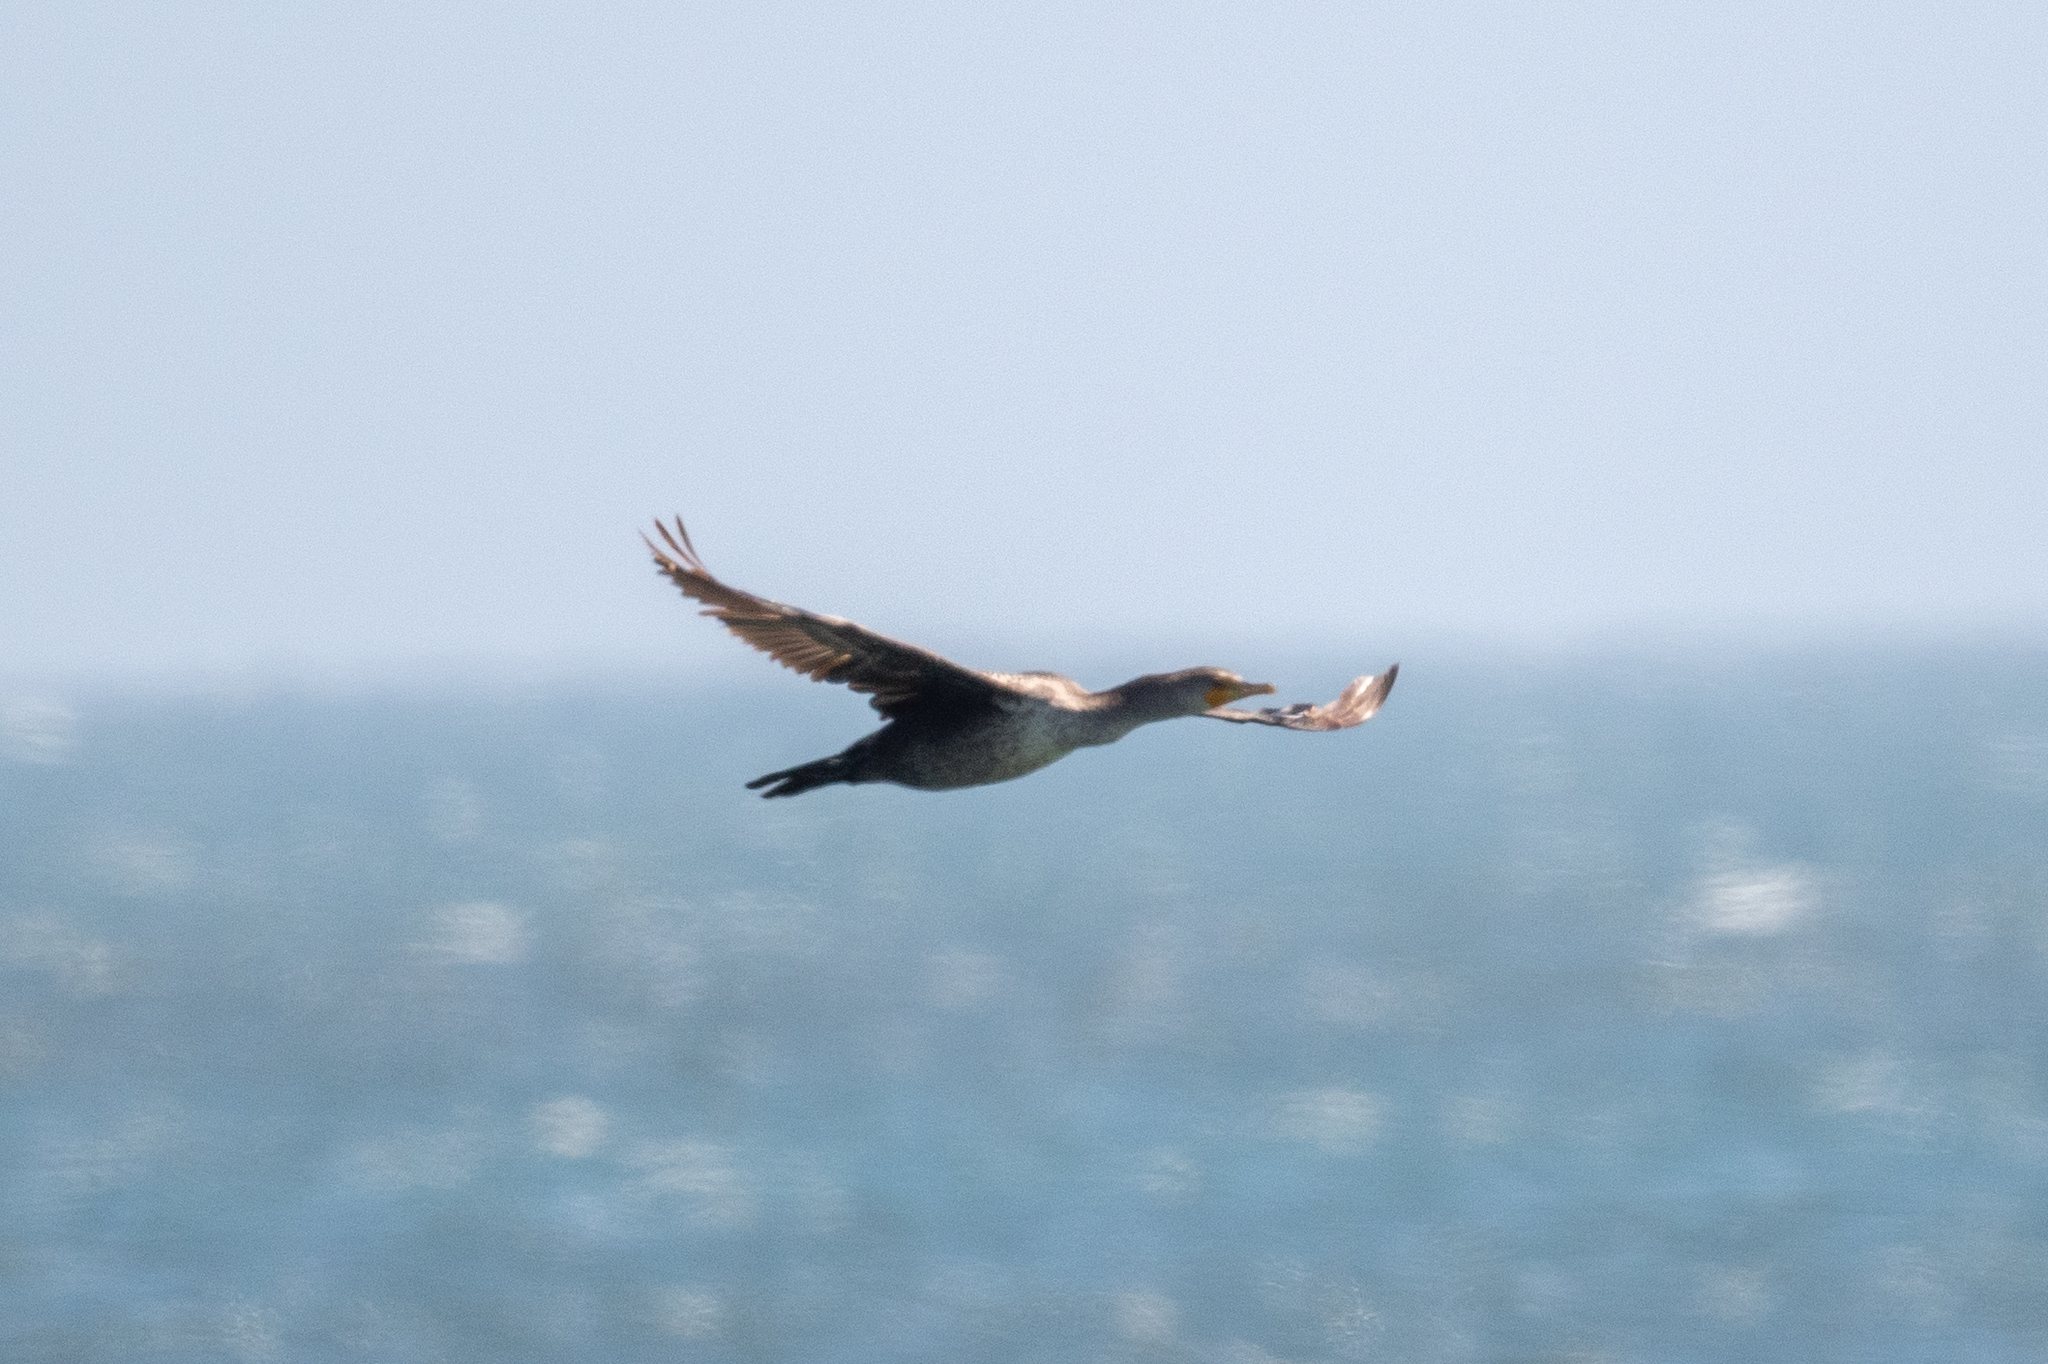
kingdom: Animalia
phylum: Chordata
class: Aves
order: Suliformes
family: Phalacrocoracidae
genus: Phalacrocorax
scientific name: Phalacrocorax auritus
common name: Double-crested cormorant
